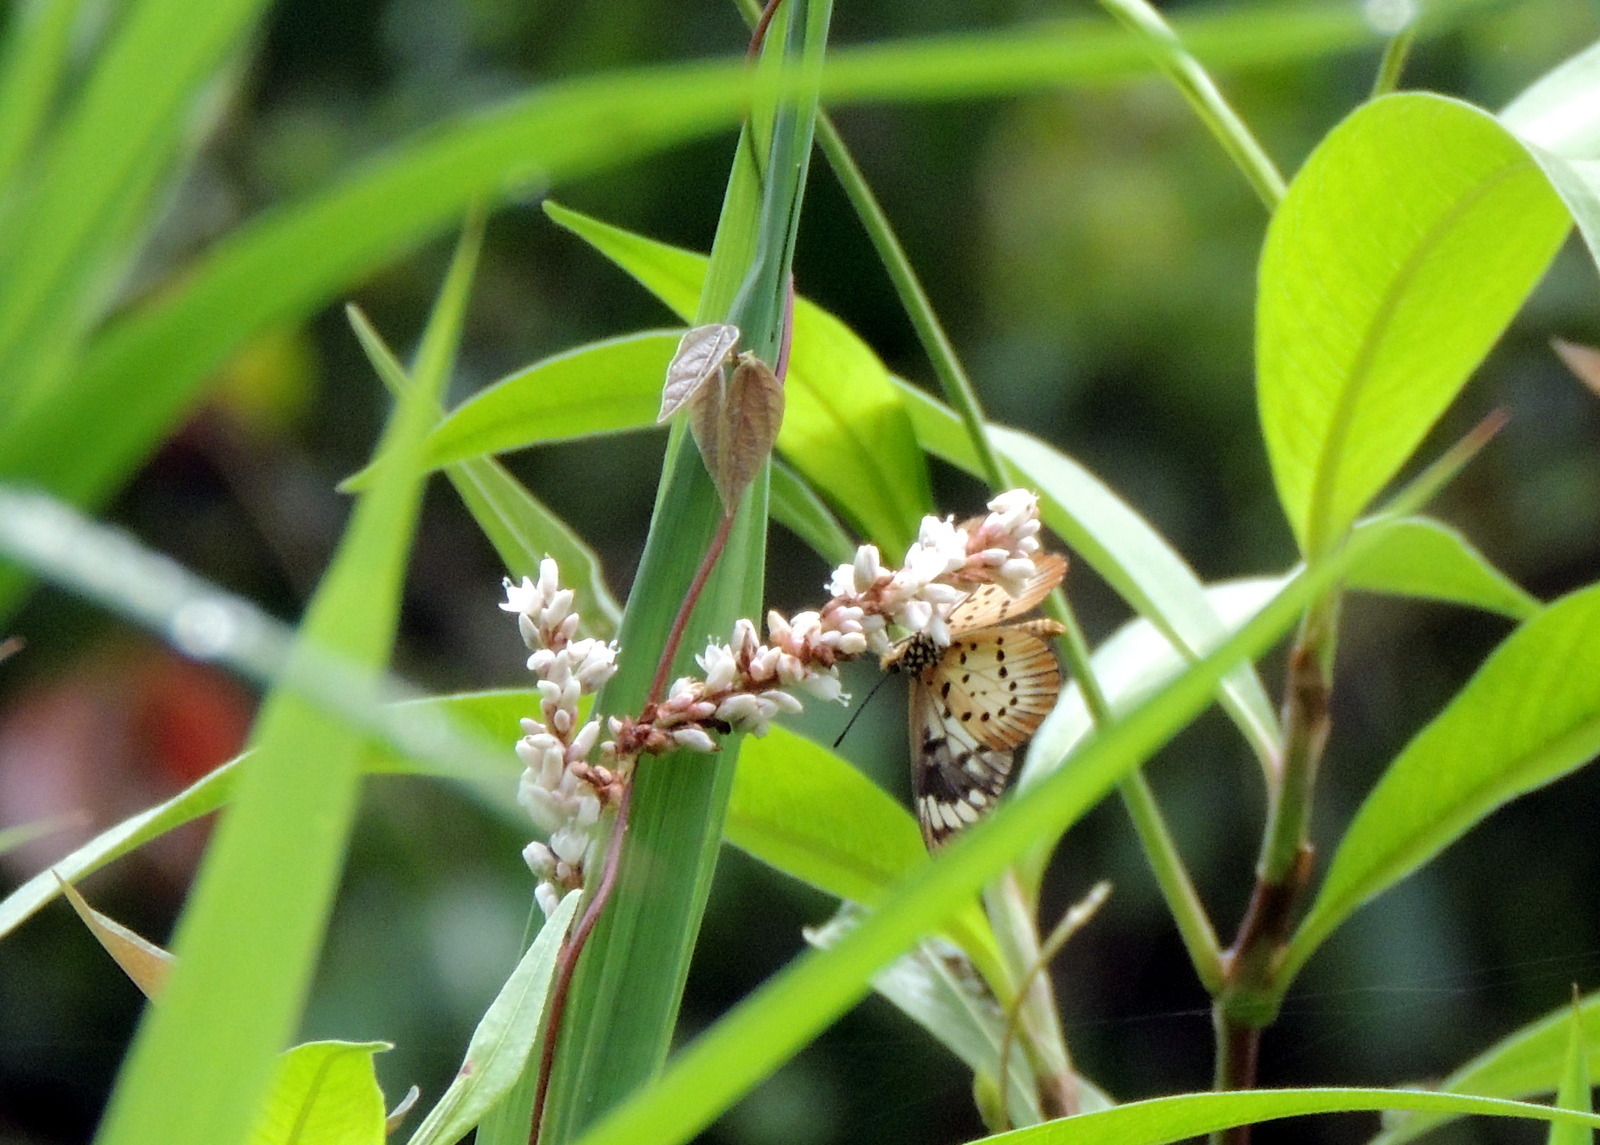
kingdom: Animalia
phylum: Arthropoda
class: Insecta
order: Lepidoptera
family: Nymphalidae
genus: Acraea
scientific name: Acraea Telchinia encedon
